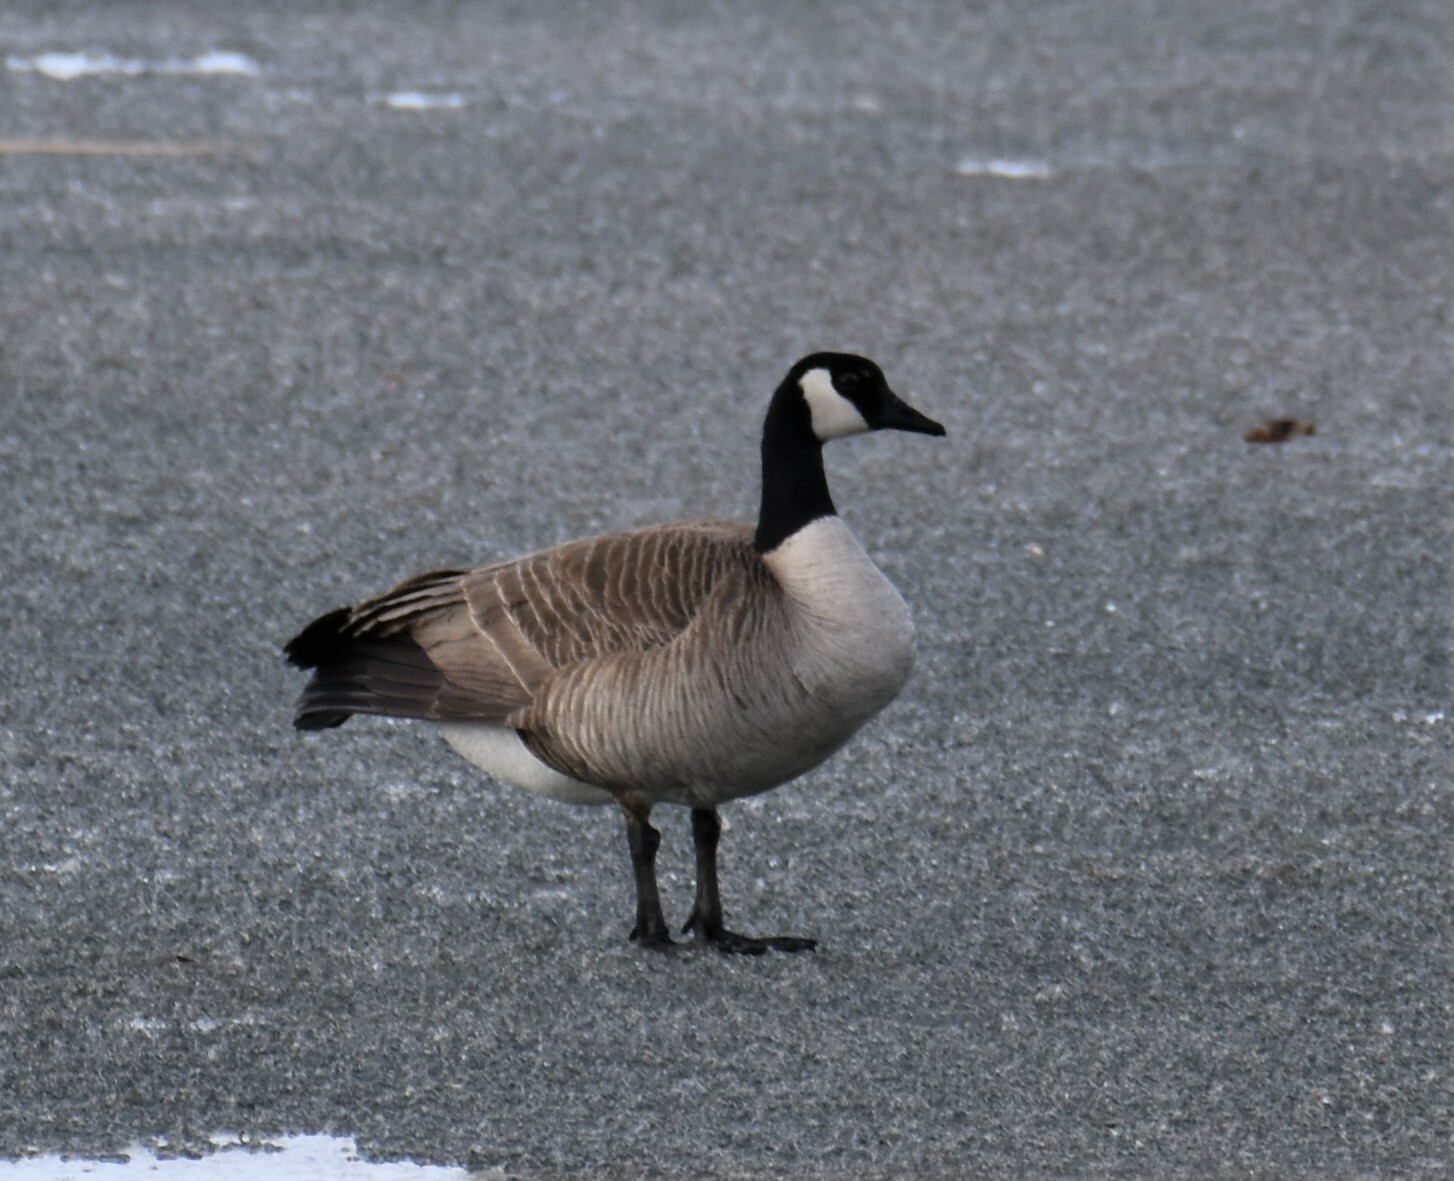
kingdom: Animalia
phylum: Chordata
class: Aves
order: Anseriformes
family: Anatidae
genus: Branta
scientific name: Branta canadensis
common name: Canada goose
